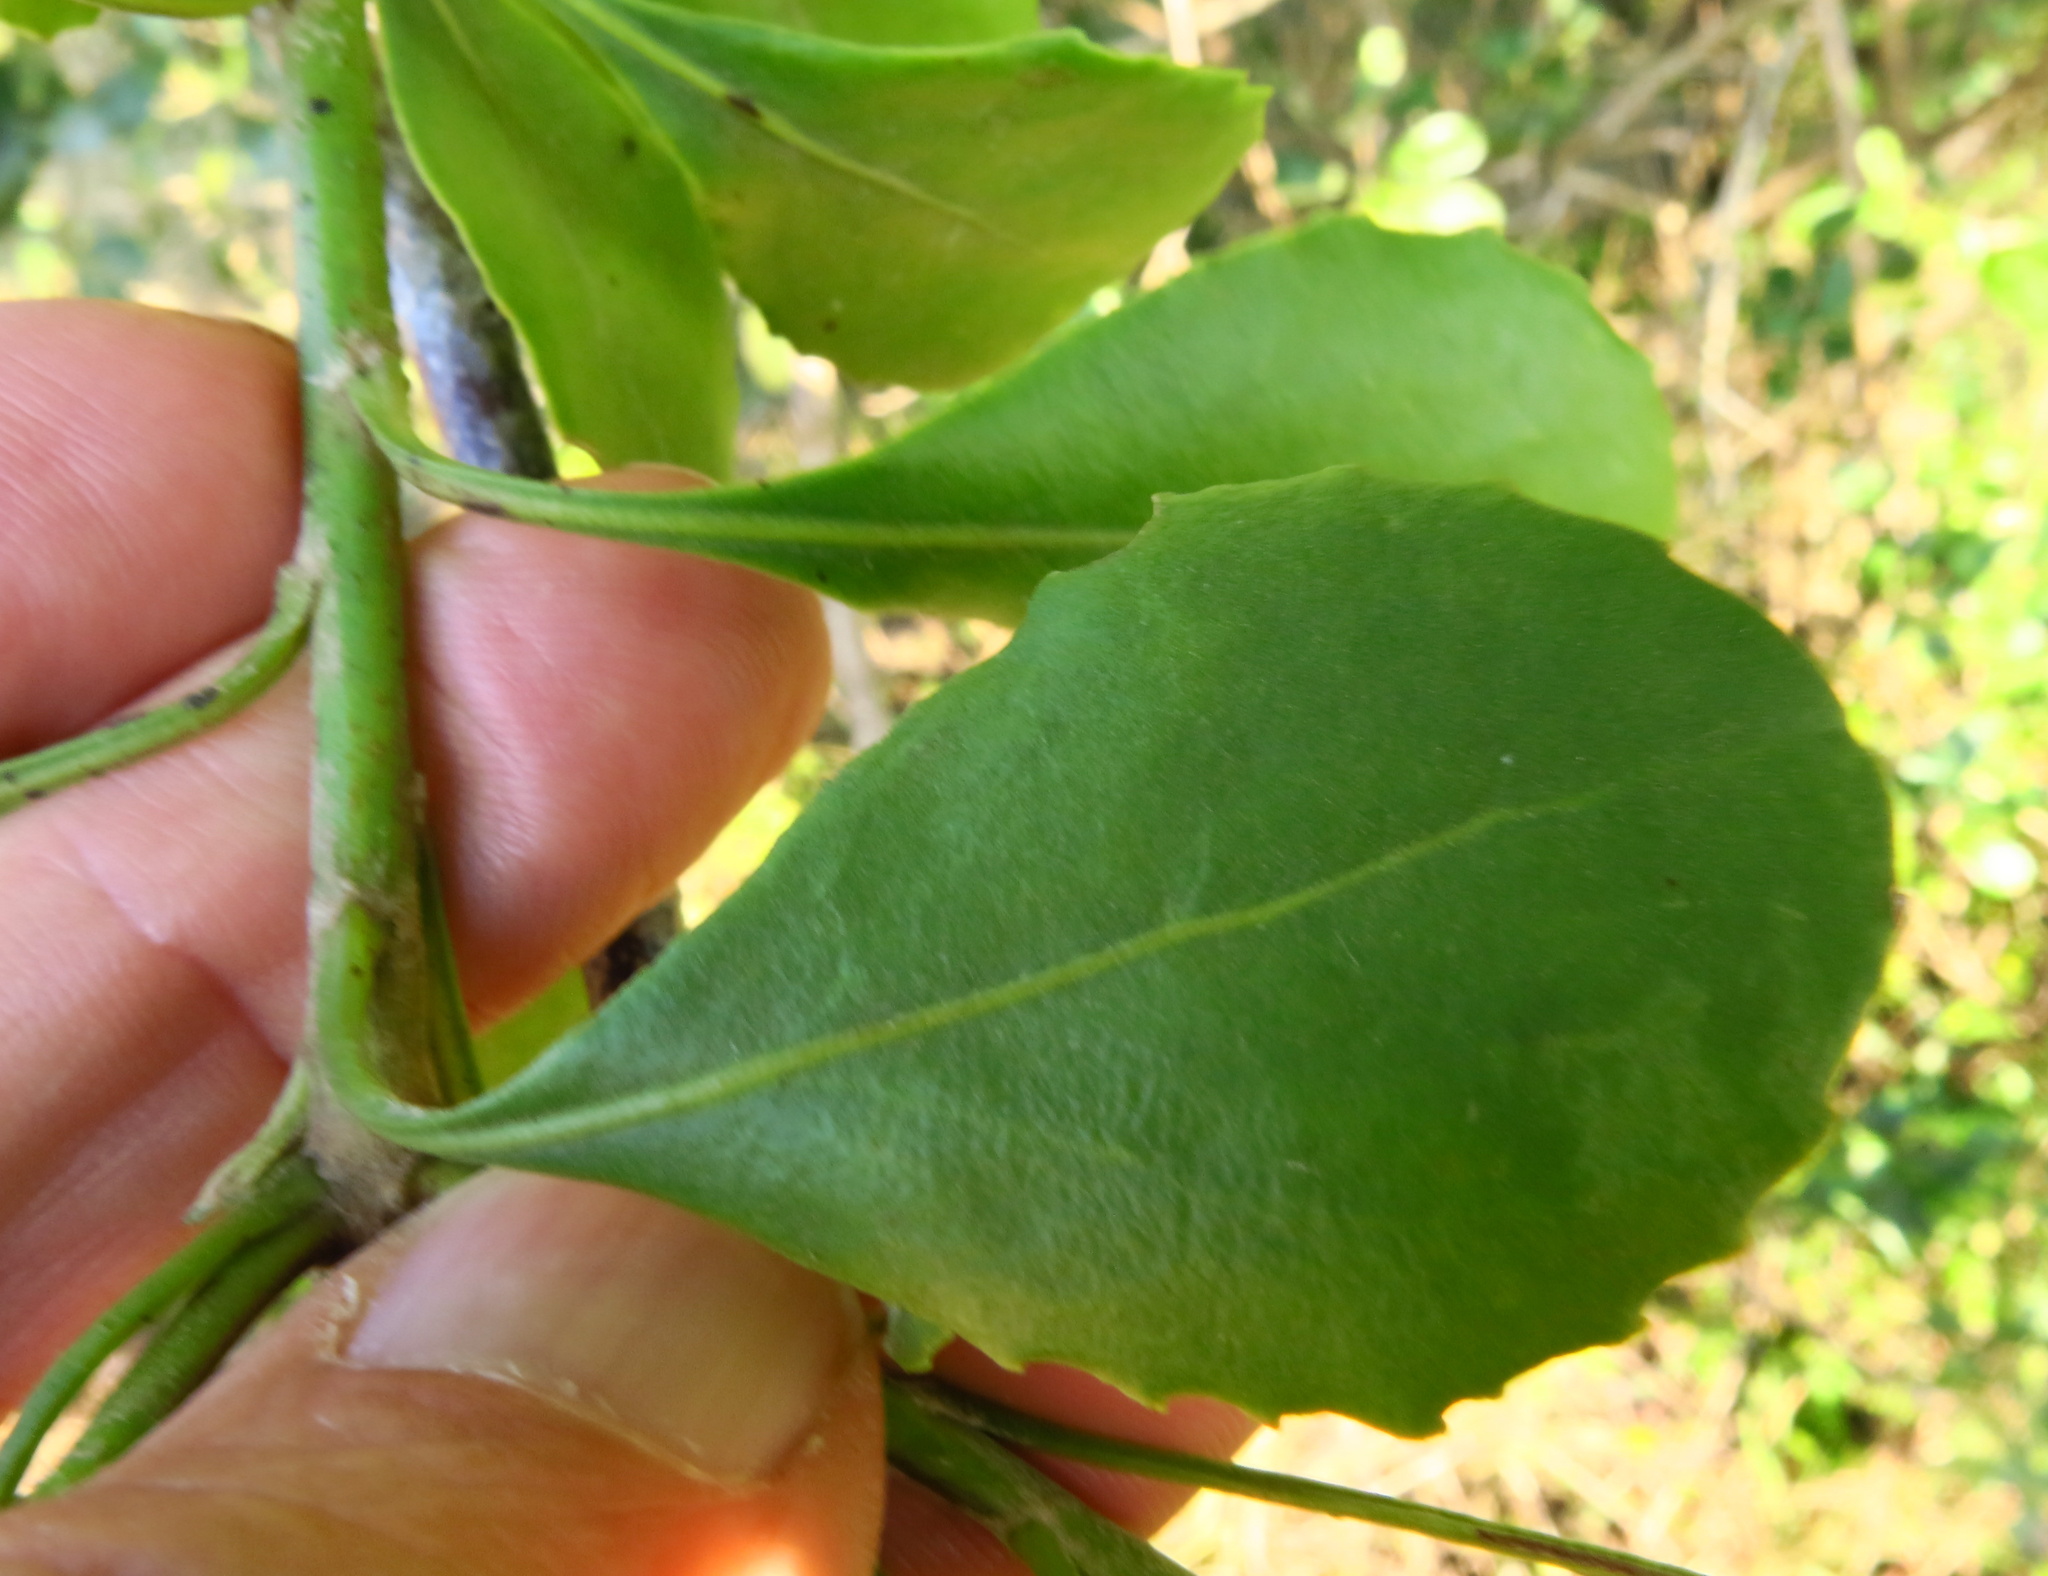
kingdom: Plantae
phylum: Tracheophyta
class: Magnoliopsida
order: Asterales
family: Asteraceae
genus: Osteospermum
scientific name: Osteospermum moniliferum
